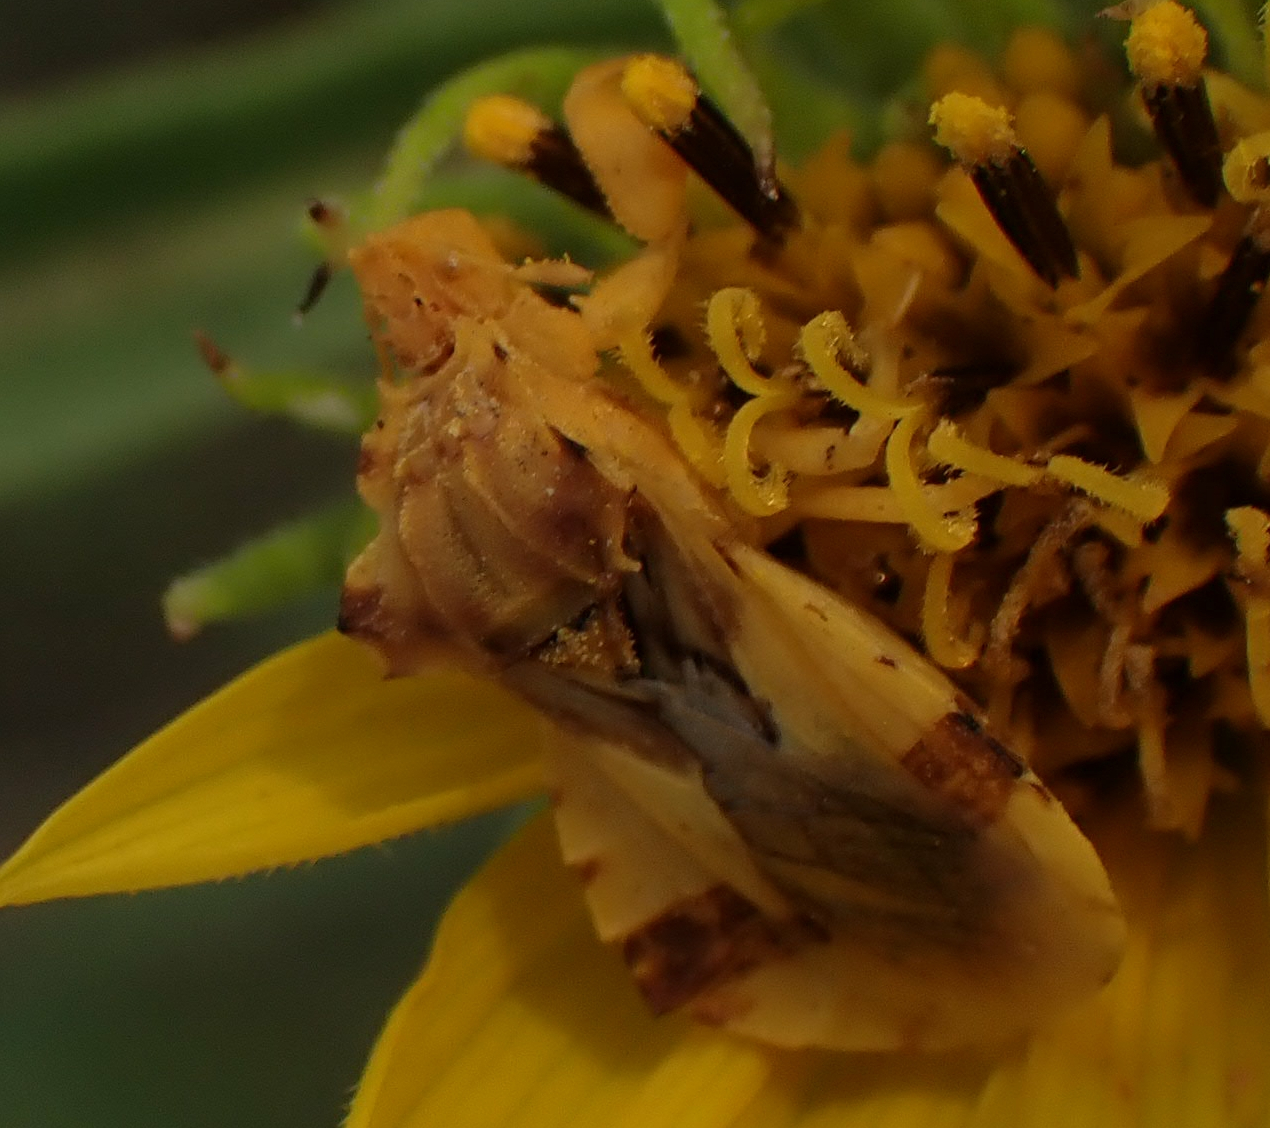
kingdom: Animalia
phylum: Arthropoda
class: Insecta
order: Hemiptera
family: Reduviidae
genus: Phymata
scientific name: Phymata americana
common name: Jagged ambush bug
